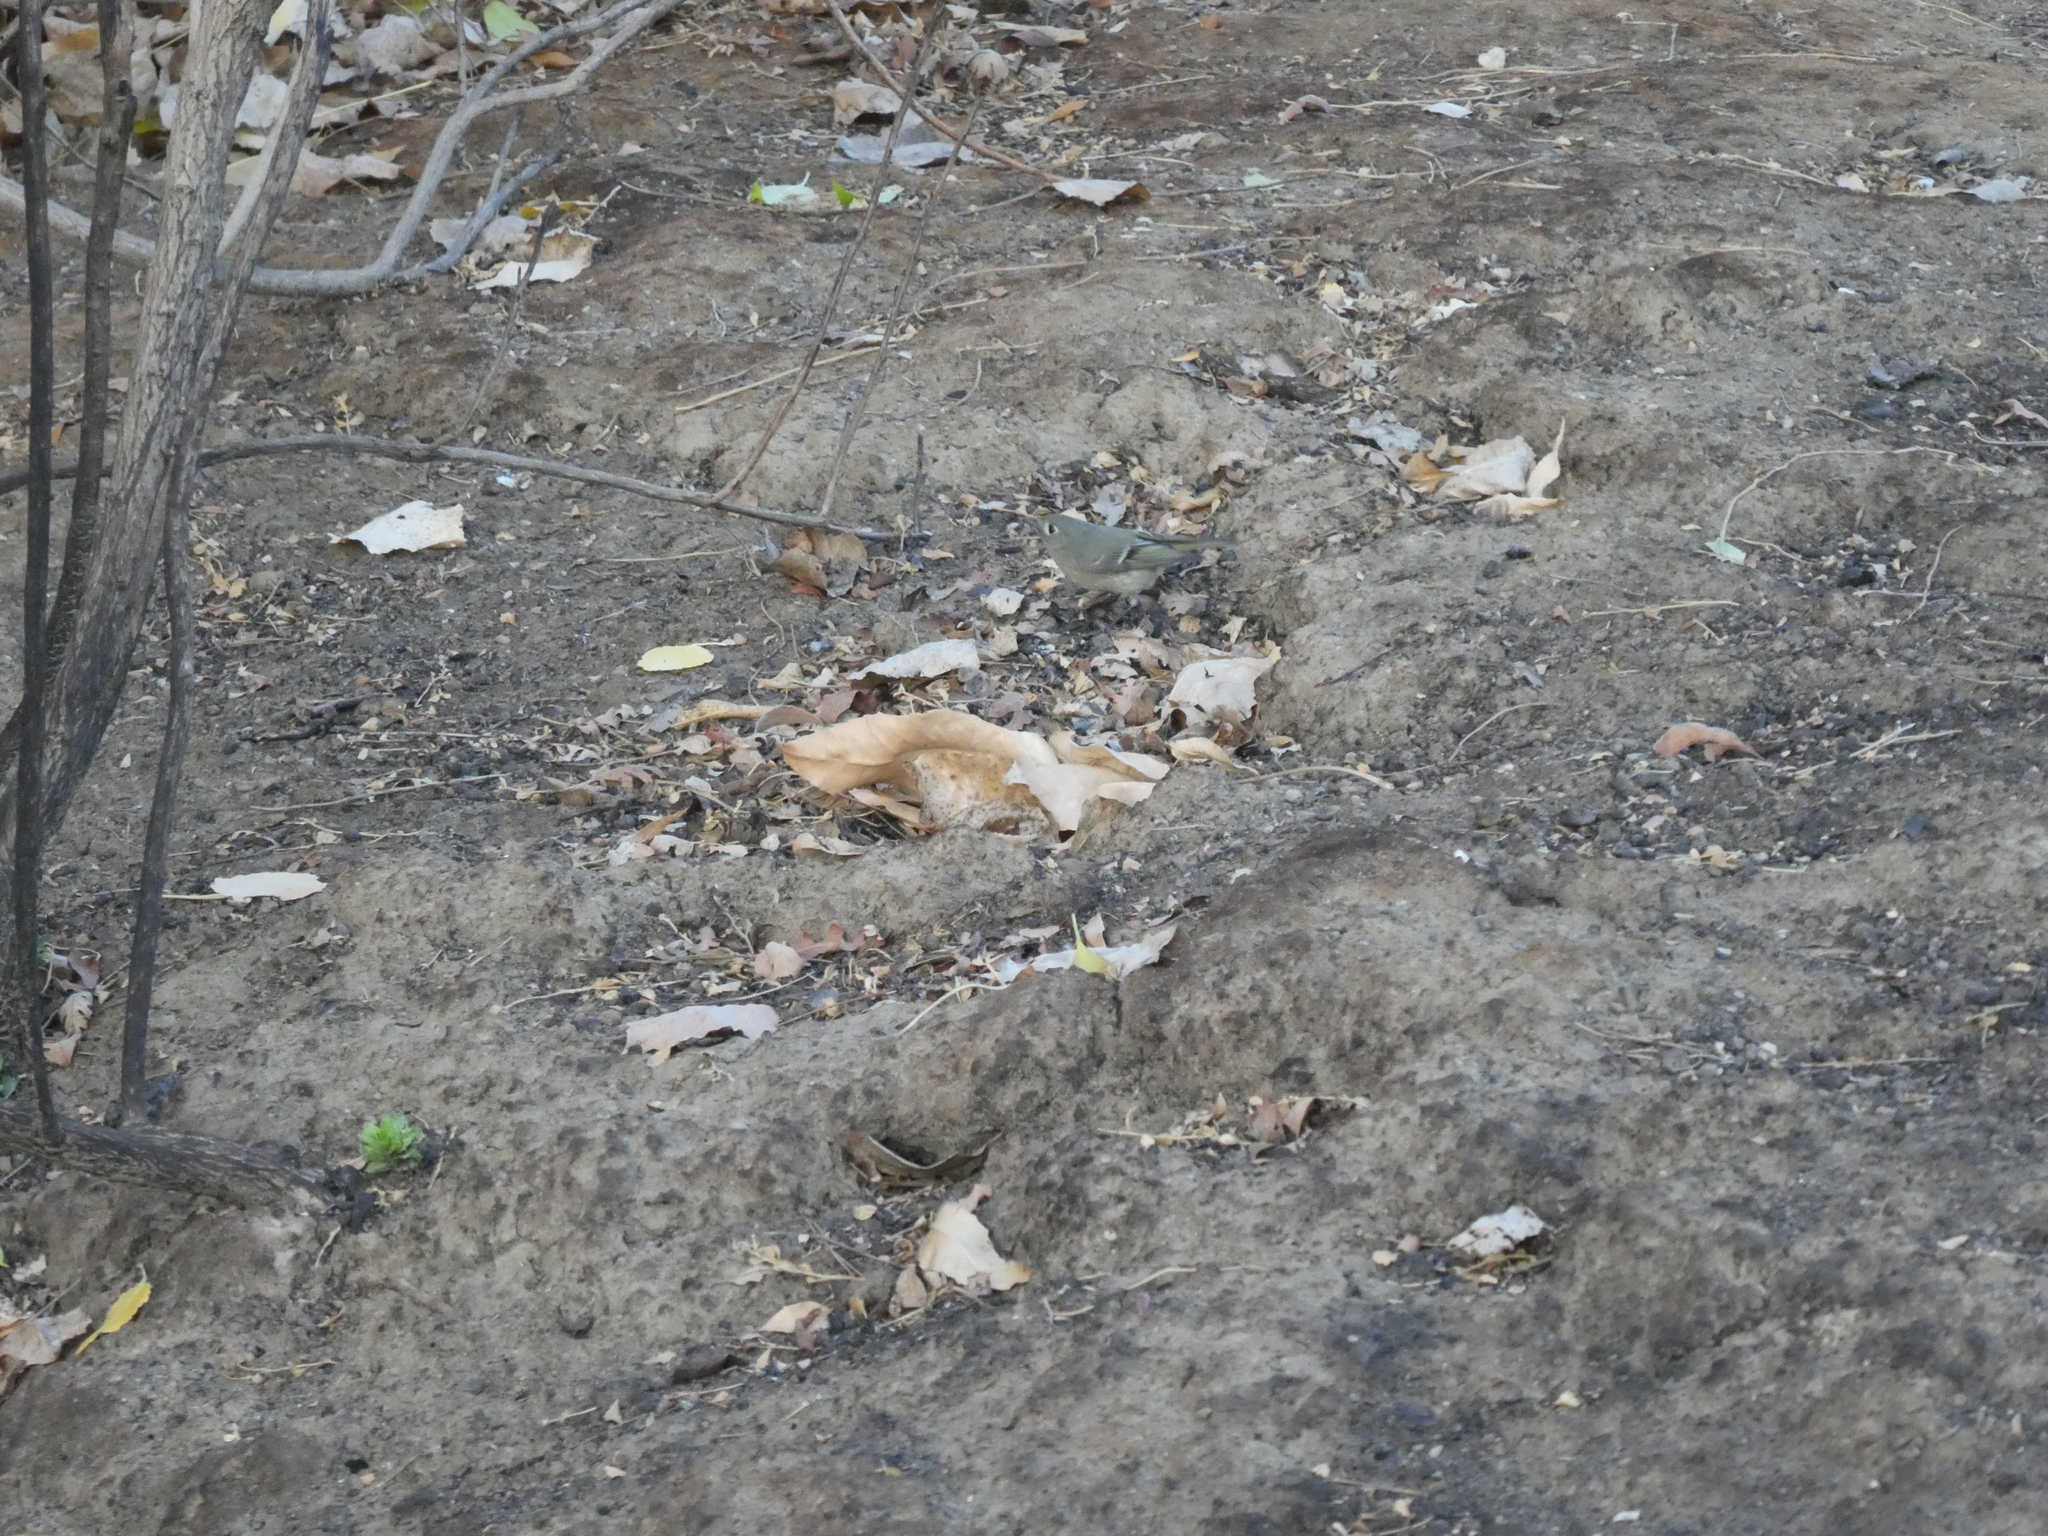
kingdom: Animalia
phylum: Chordata
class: Aves
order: Passeriformes
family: Regulidae
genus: Regulus
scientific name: Regulus calendula
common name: Ruby-crowned kinglet
